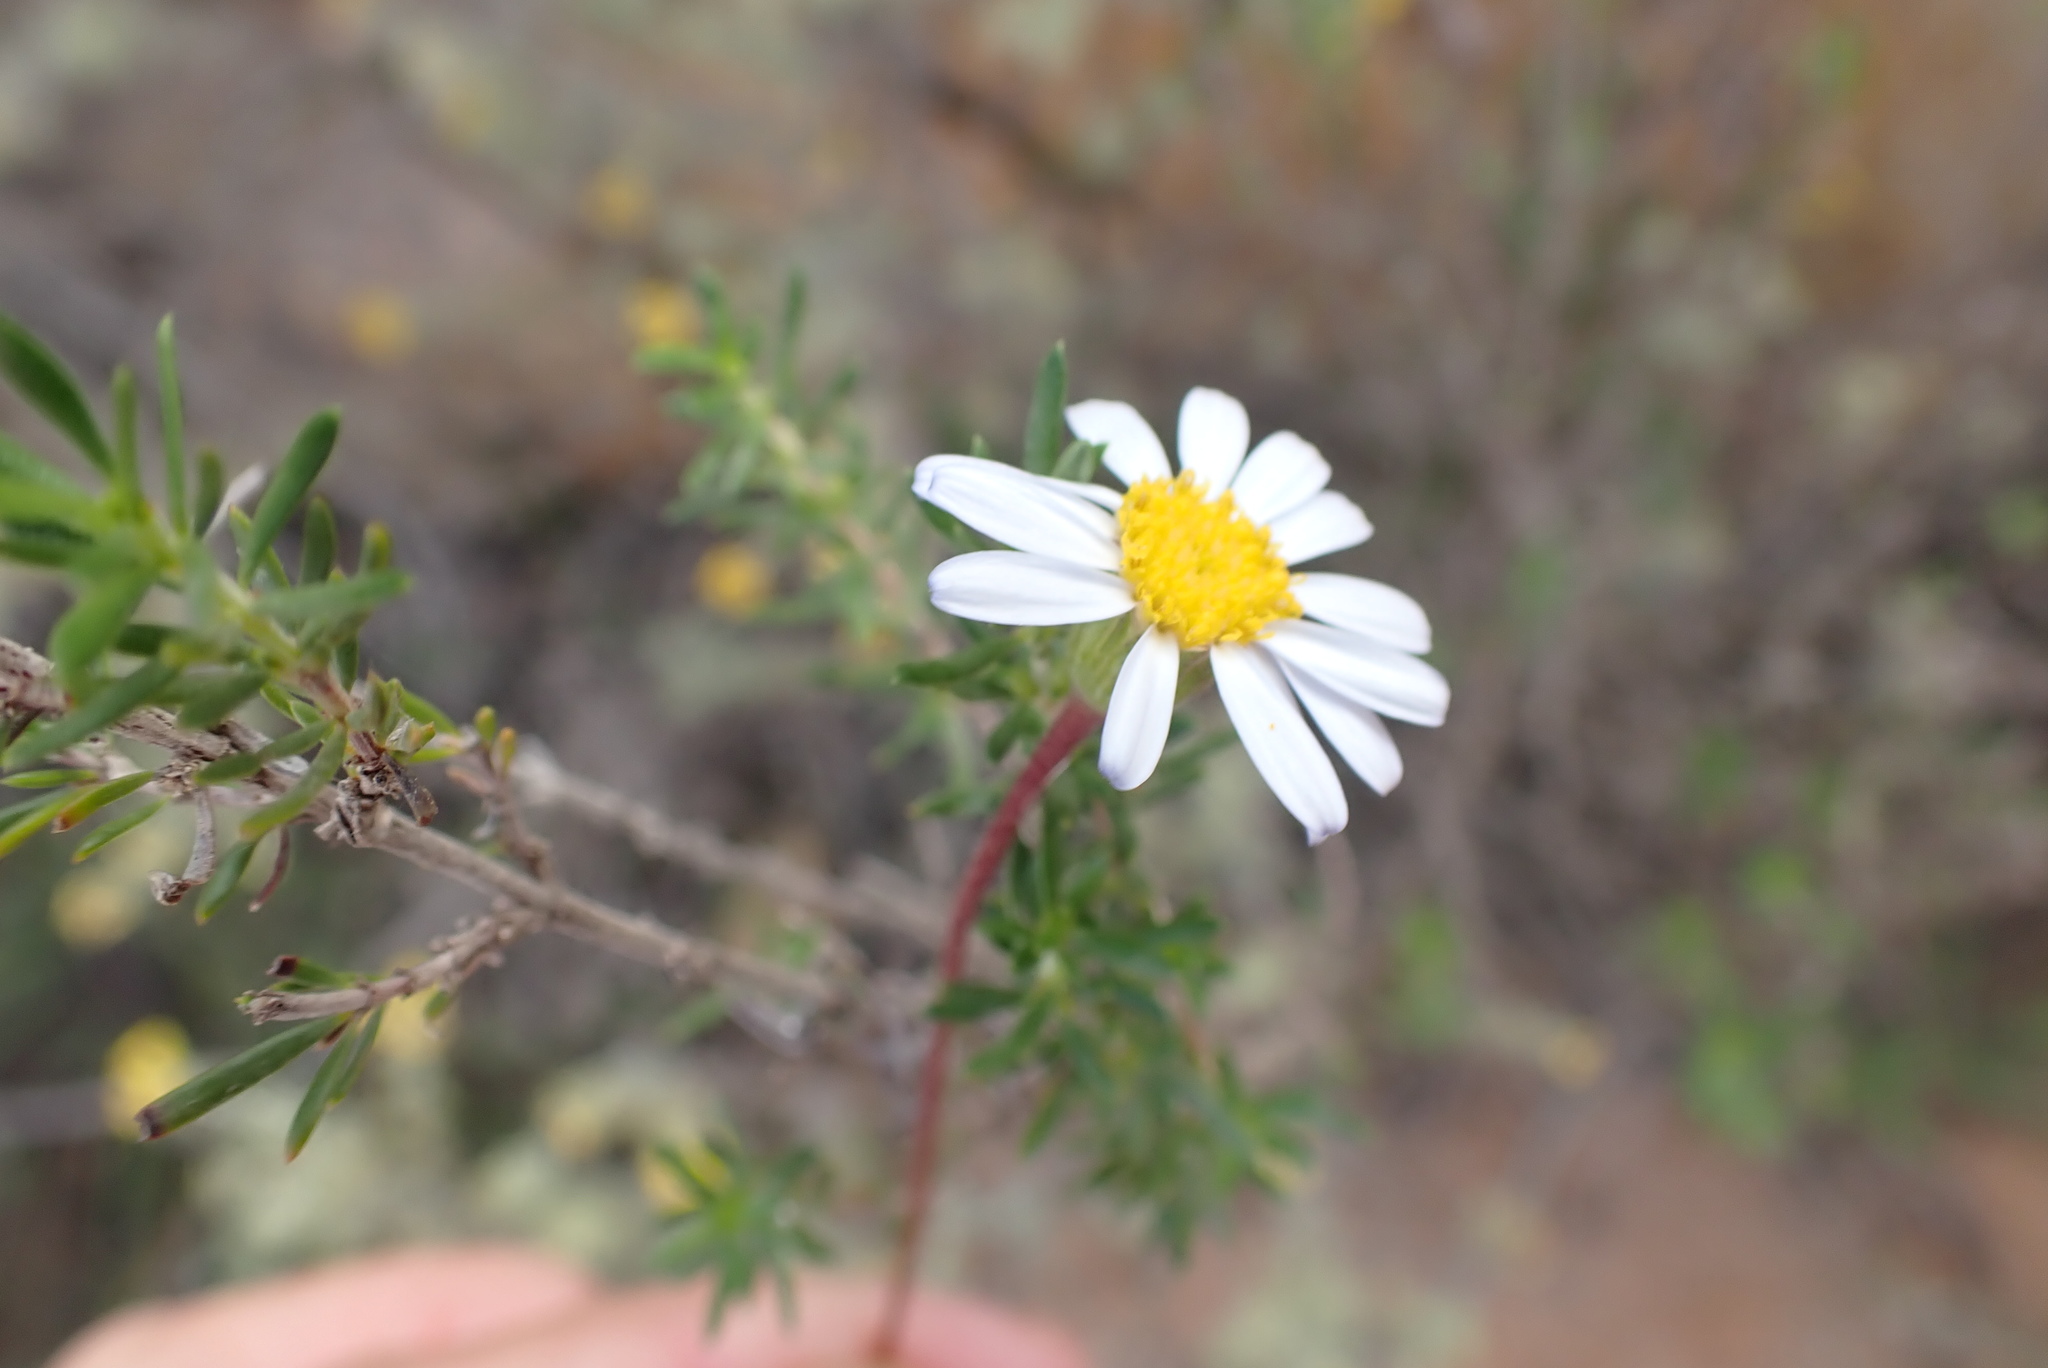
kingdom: Plantae
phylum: Tracheophyta
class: Magnoliopsida
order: Asterales
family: Asteraceae
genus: Felicia
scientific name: Felicia muricata
